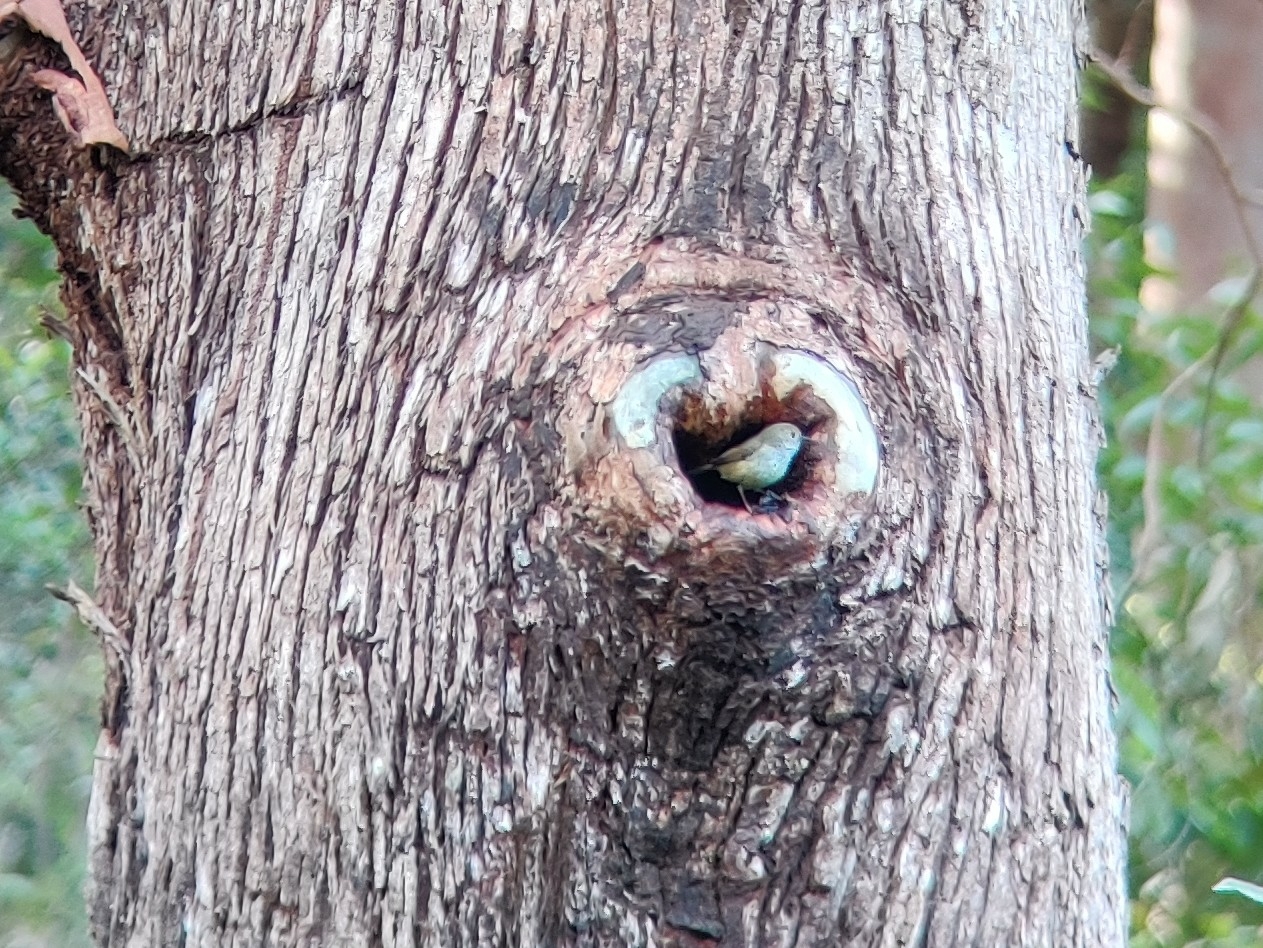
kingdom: Animalia
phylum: Chordata
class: Aves
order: Passeriformes
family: Acanthizidae
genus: Acanthiza
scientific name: Acanthiza pusilla
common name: Brown thornbill
